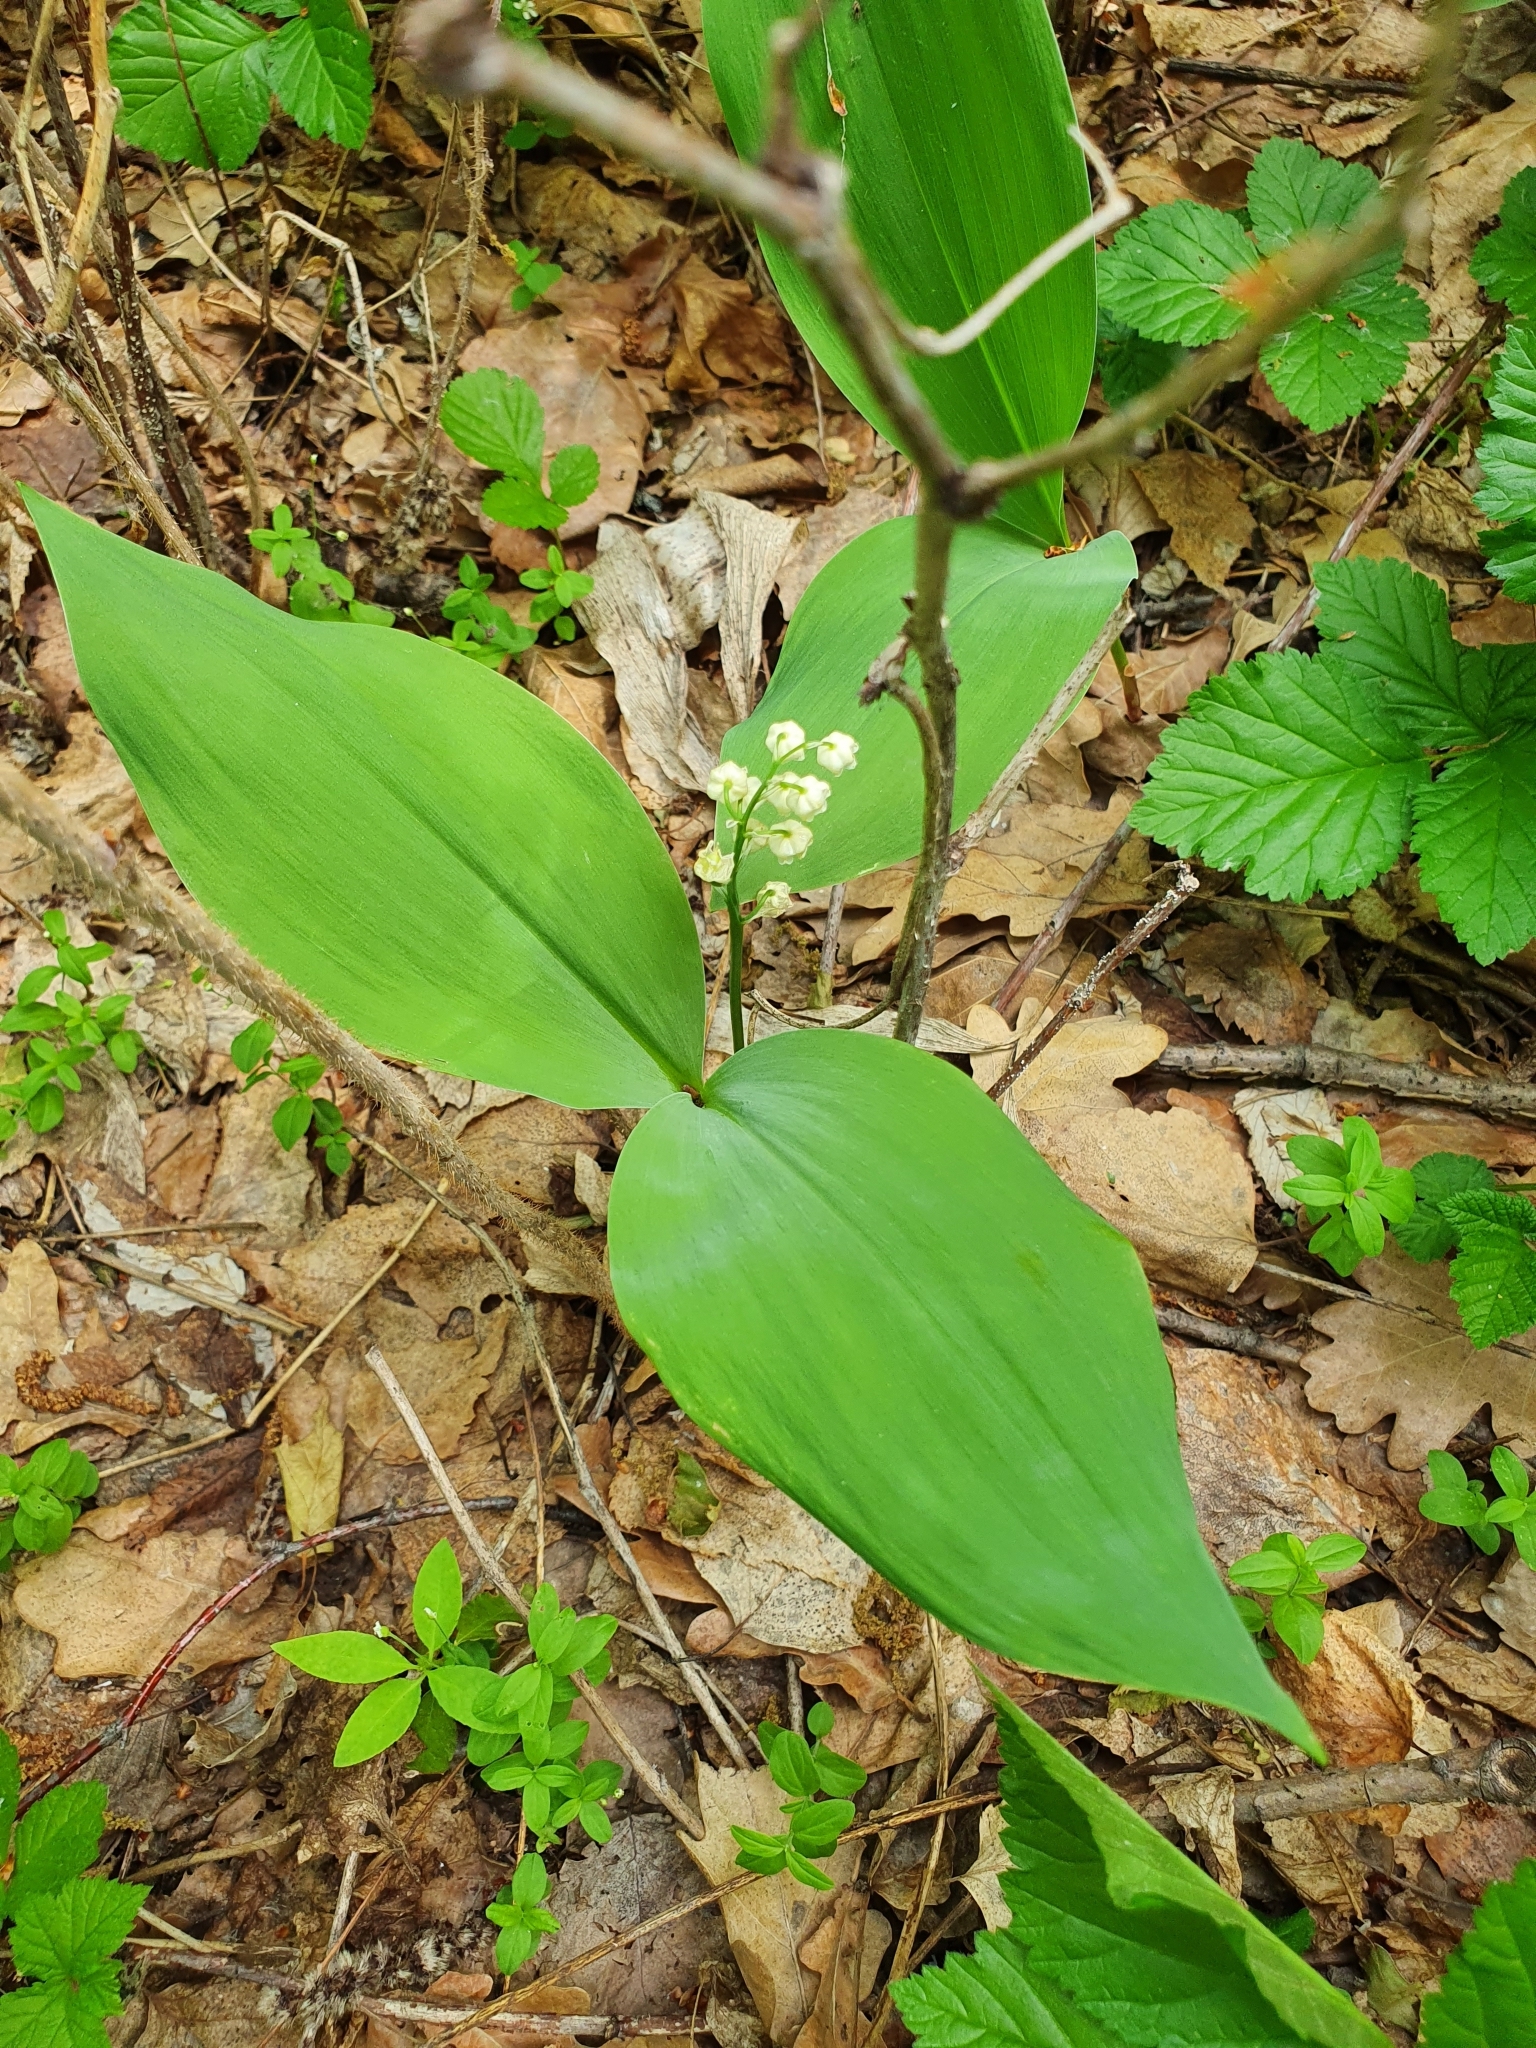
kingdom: Plantae
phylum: Tracheophyta
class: Liliopsida
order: Asparagales
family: Asparagaceae
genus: Convallaria
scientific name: Convallaria majalis
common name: Lily-of-the-valley
